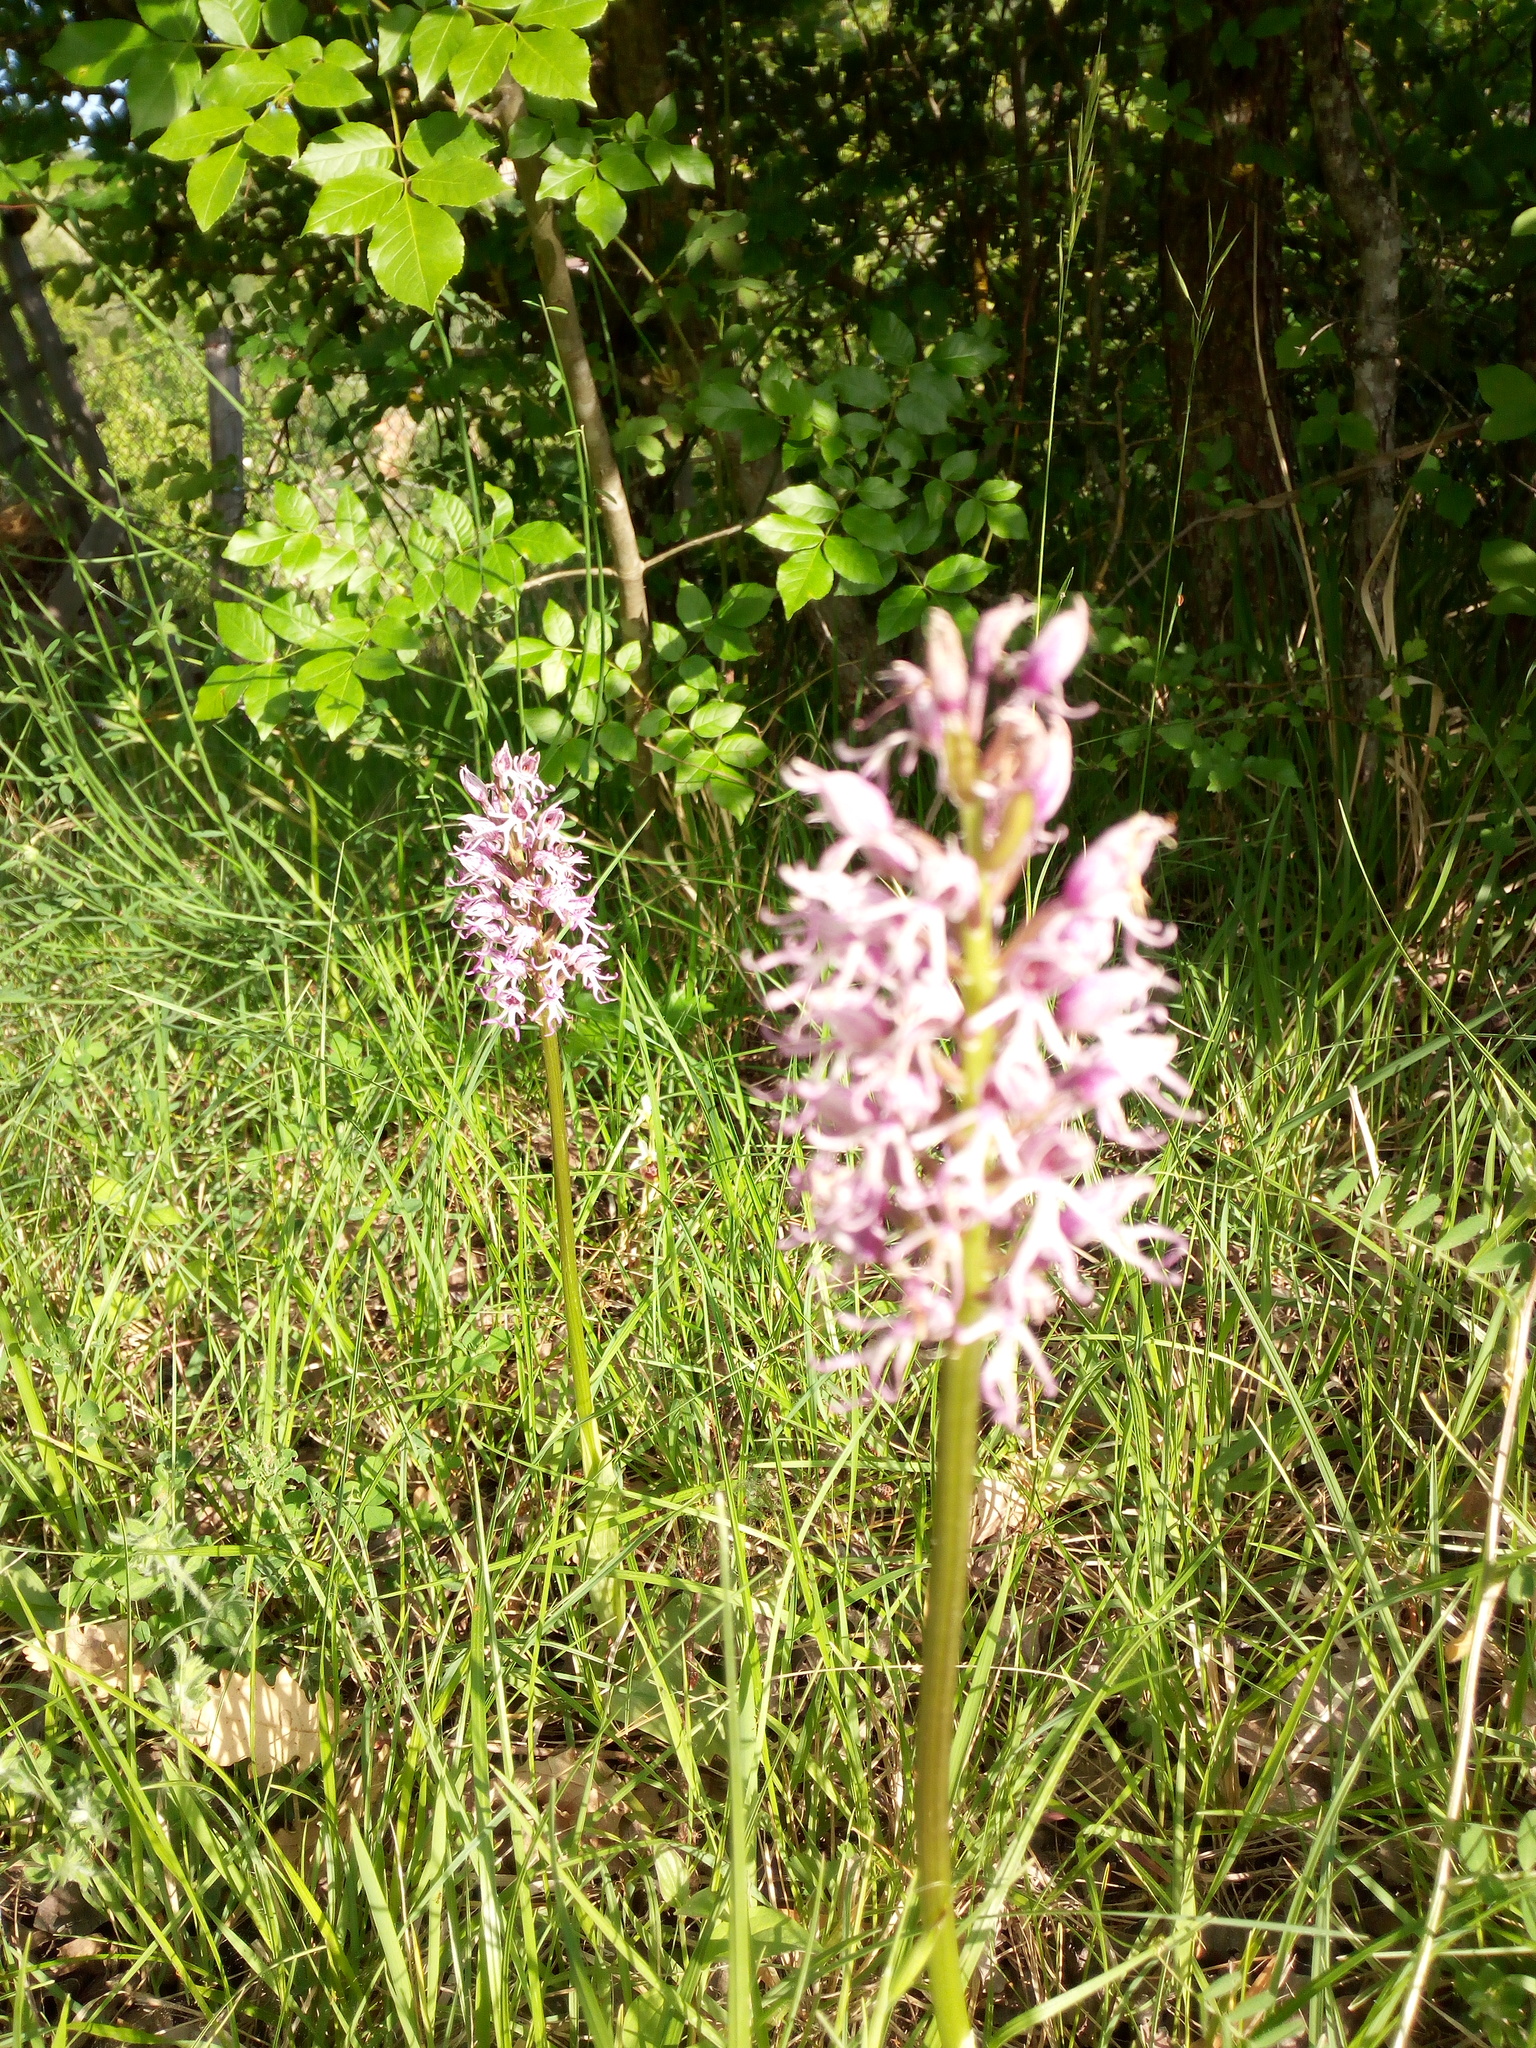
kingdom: Plantae
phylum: Tracheophyta
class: Liliopsida
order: Asparagales
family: Orchidaceae
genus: Orchis
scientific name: Orchis simia
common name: Monkey orchid
